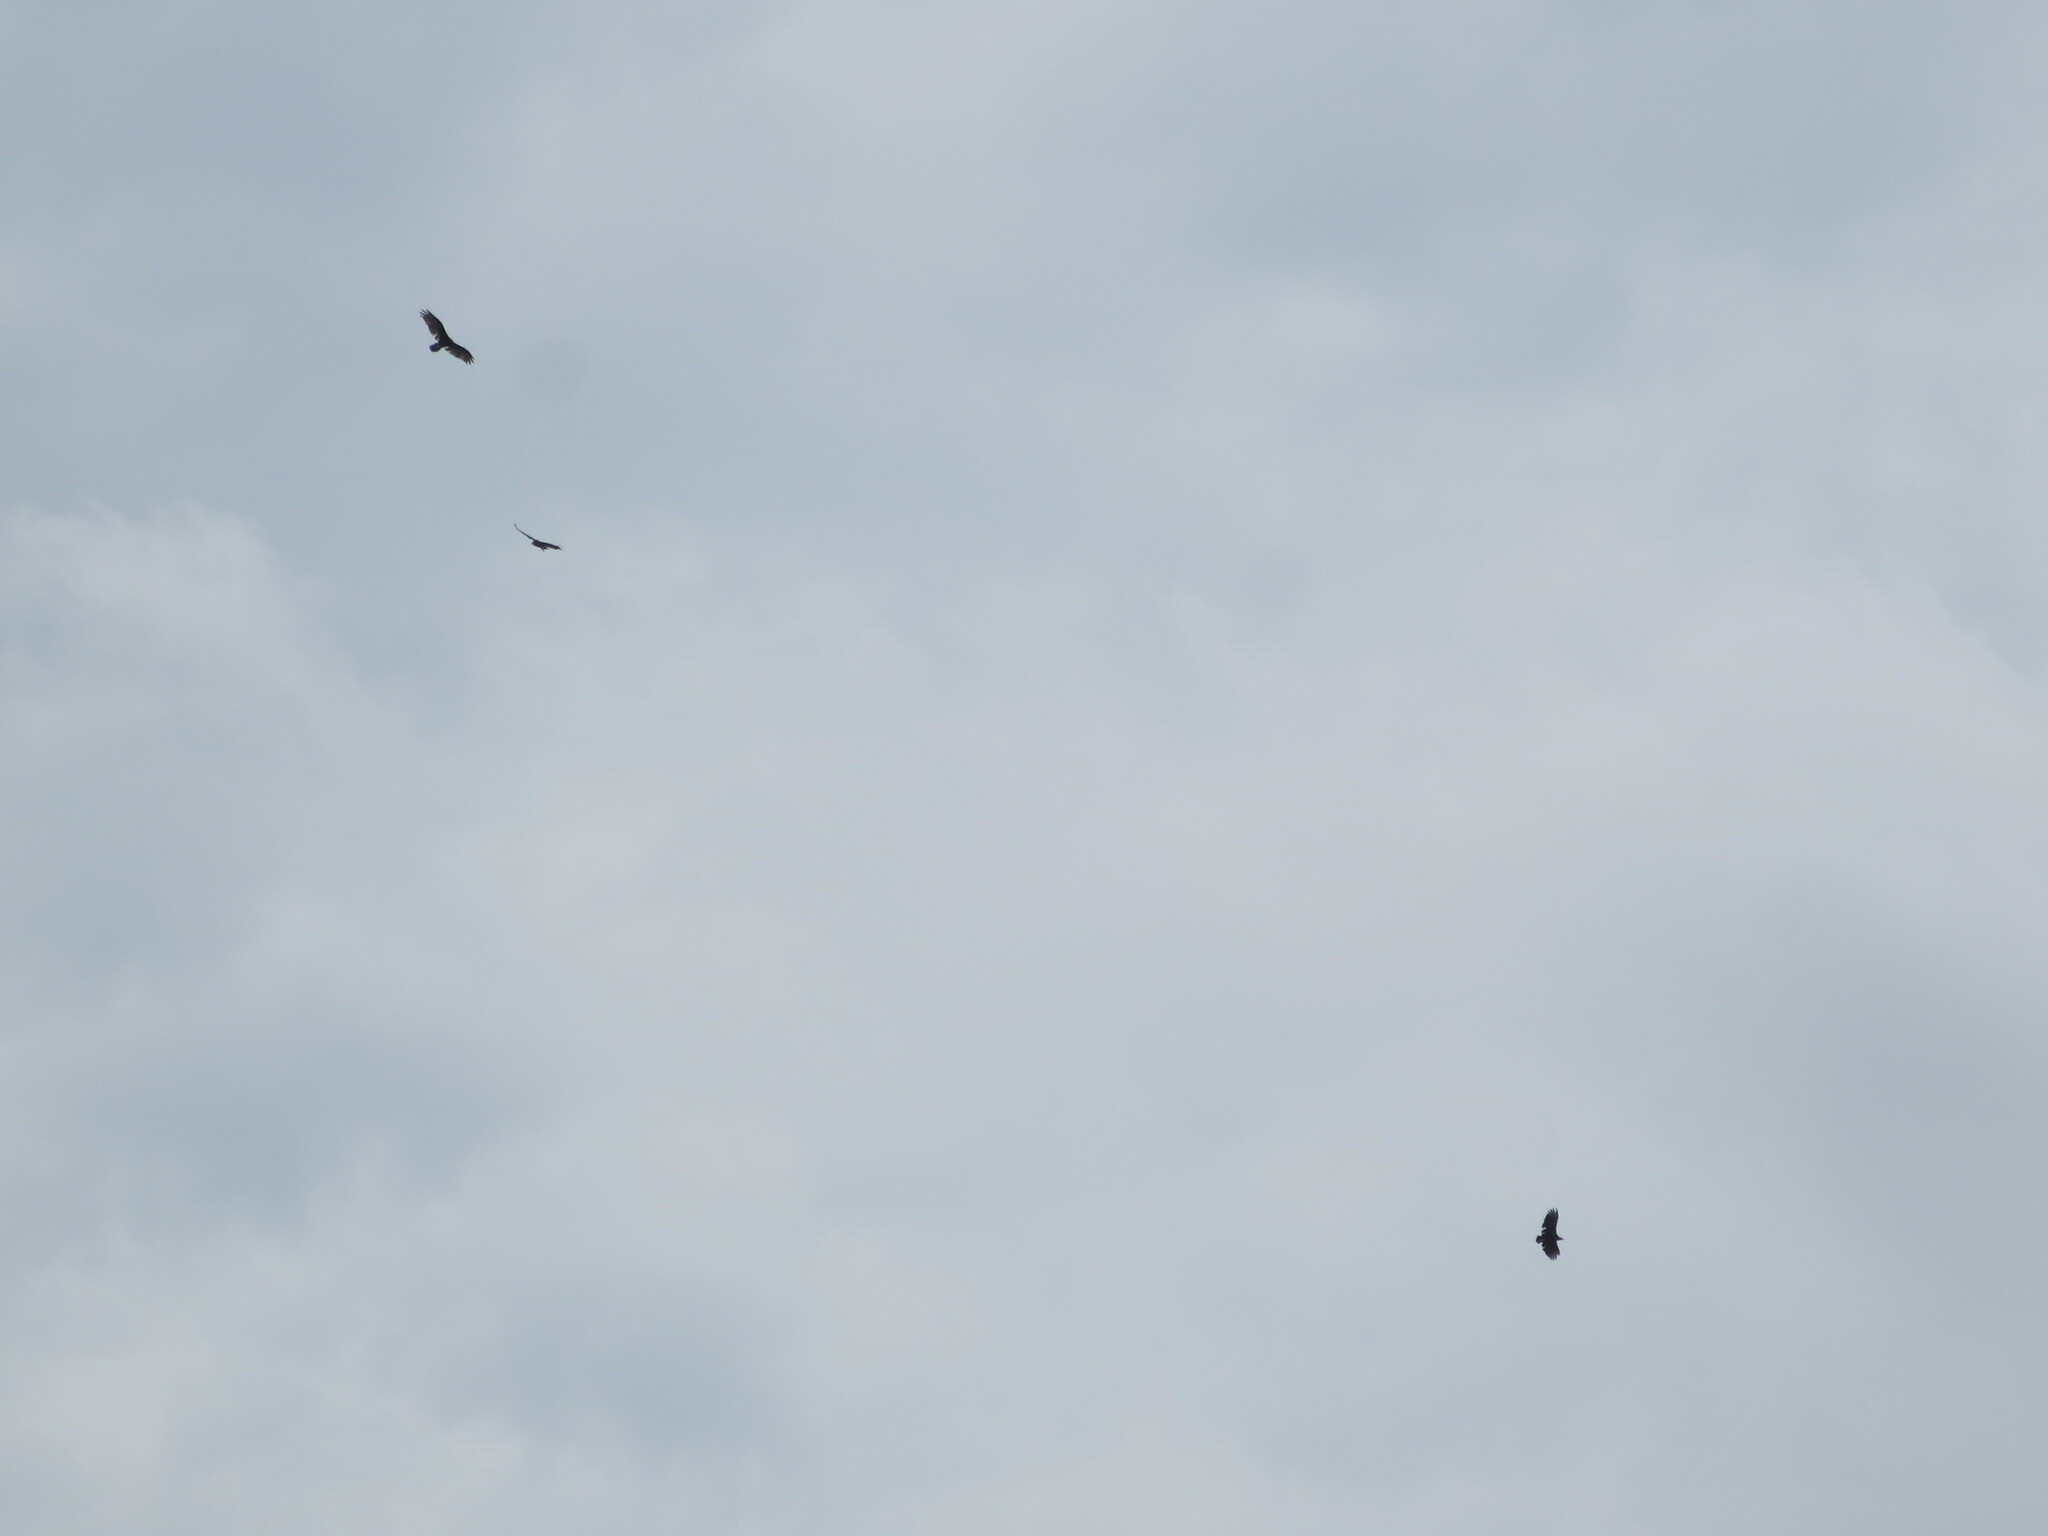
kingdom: Animalia
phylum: Chordata
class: Aves
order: Accipitriformes
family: Cathartidae
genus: Coragyps
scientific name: Coragyps atratus
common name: Black vulture
